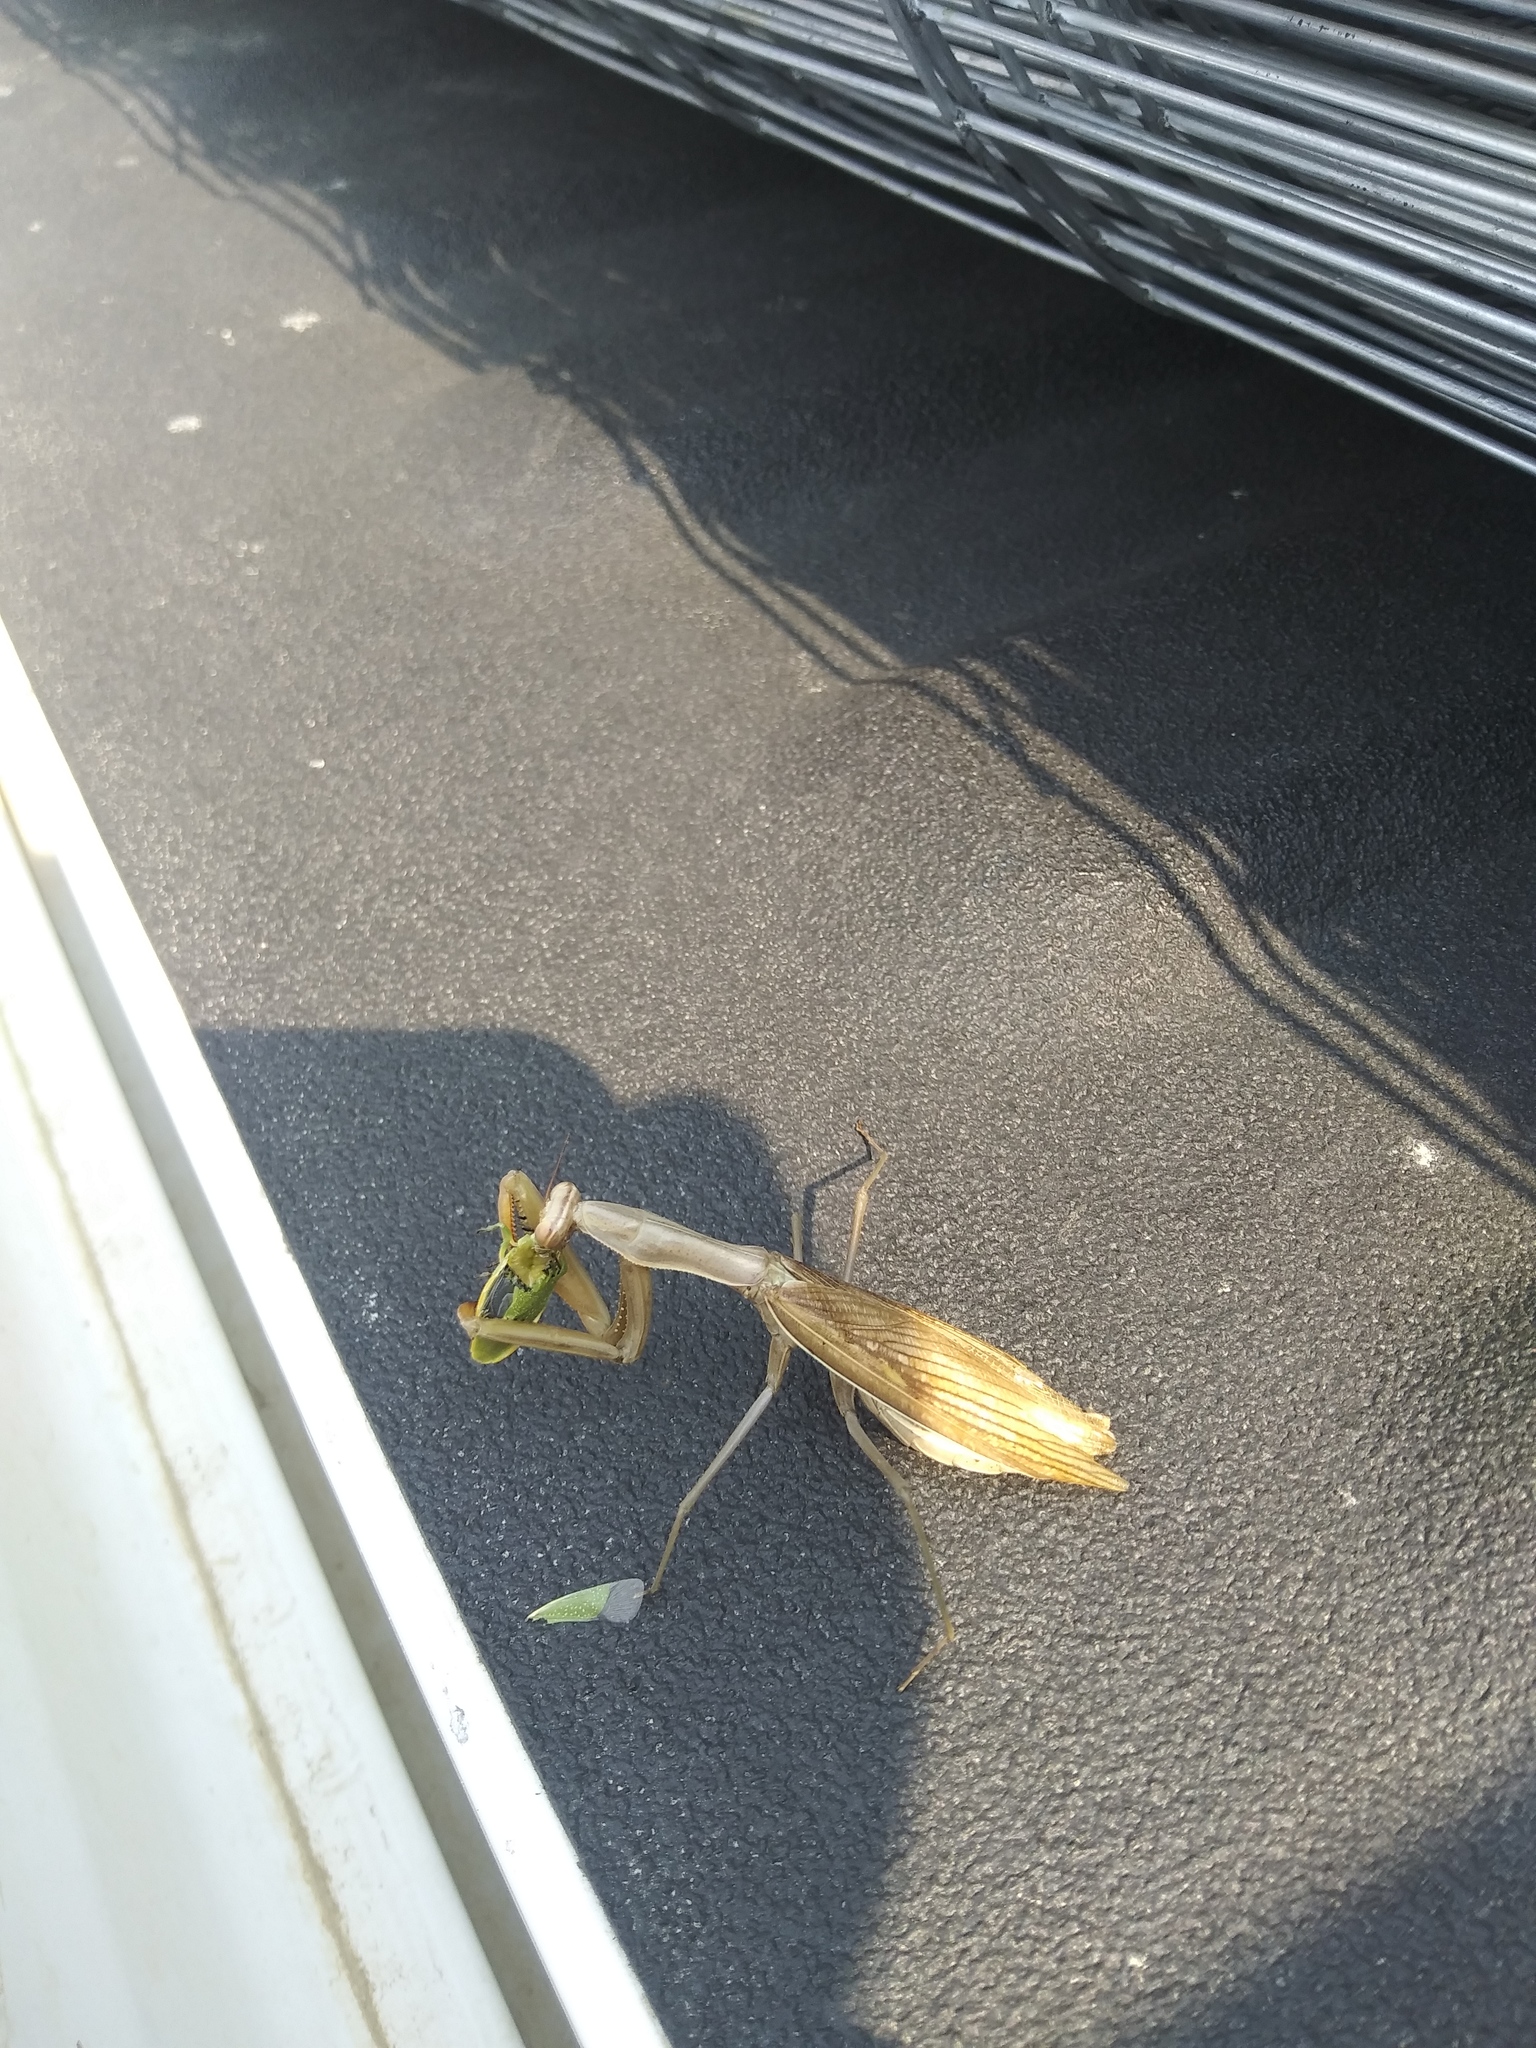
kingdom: Animalia
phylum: Arthropoda
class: Insecta
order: Mantodea
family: Mantidae
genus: Mantis
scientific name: Mantis religiosa
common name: Praying mantis
